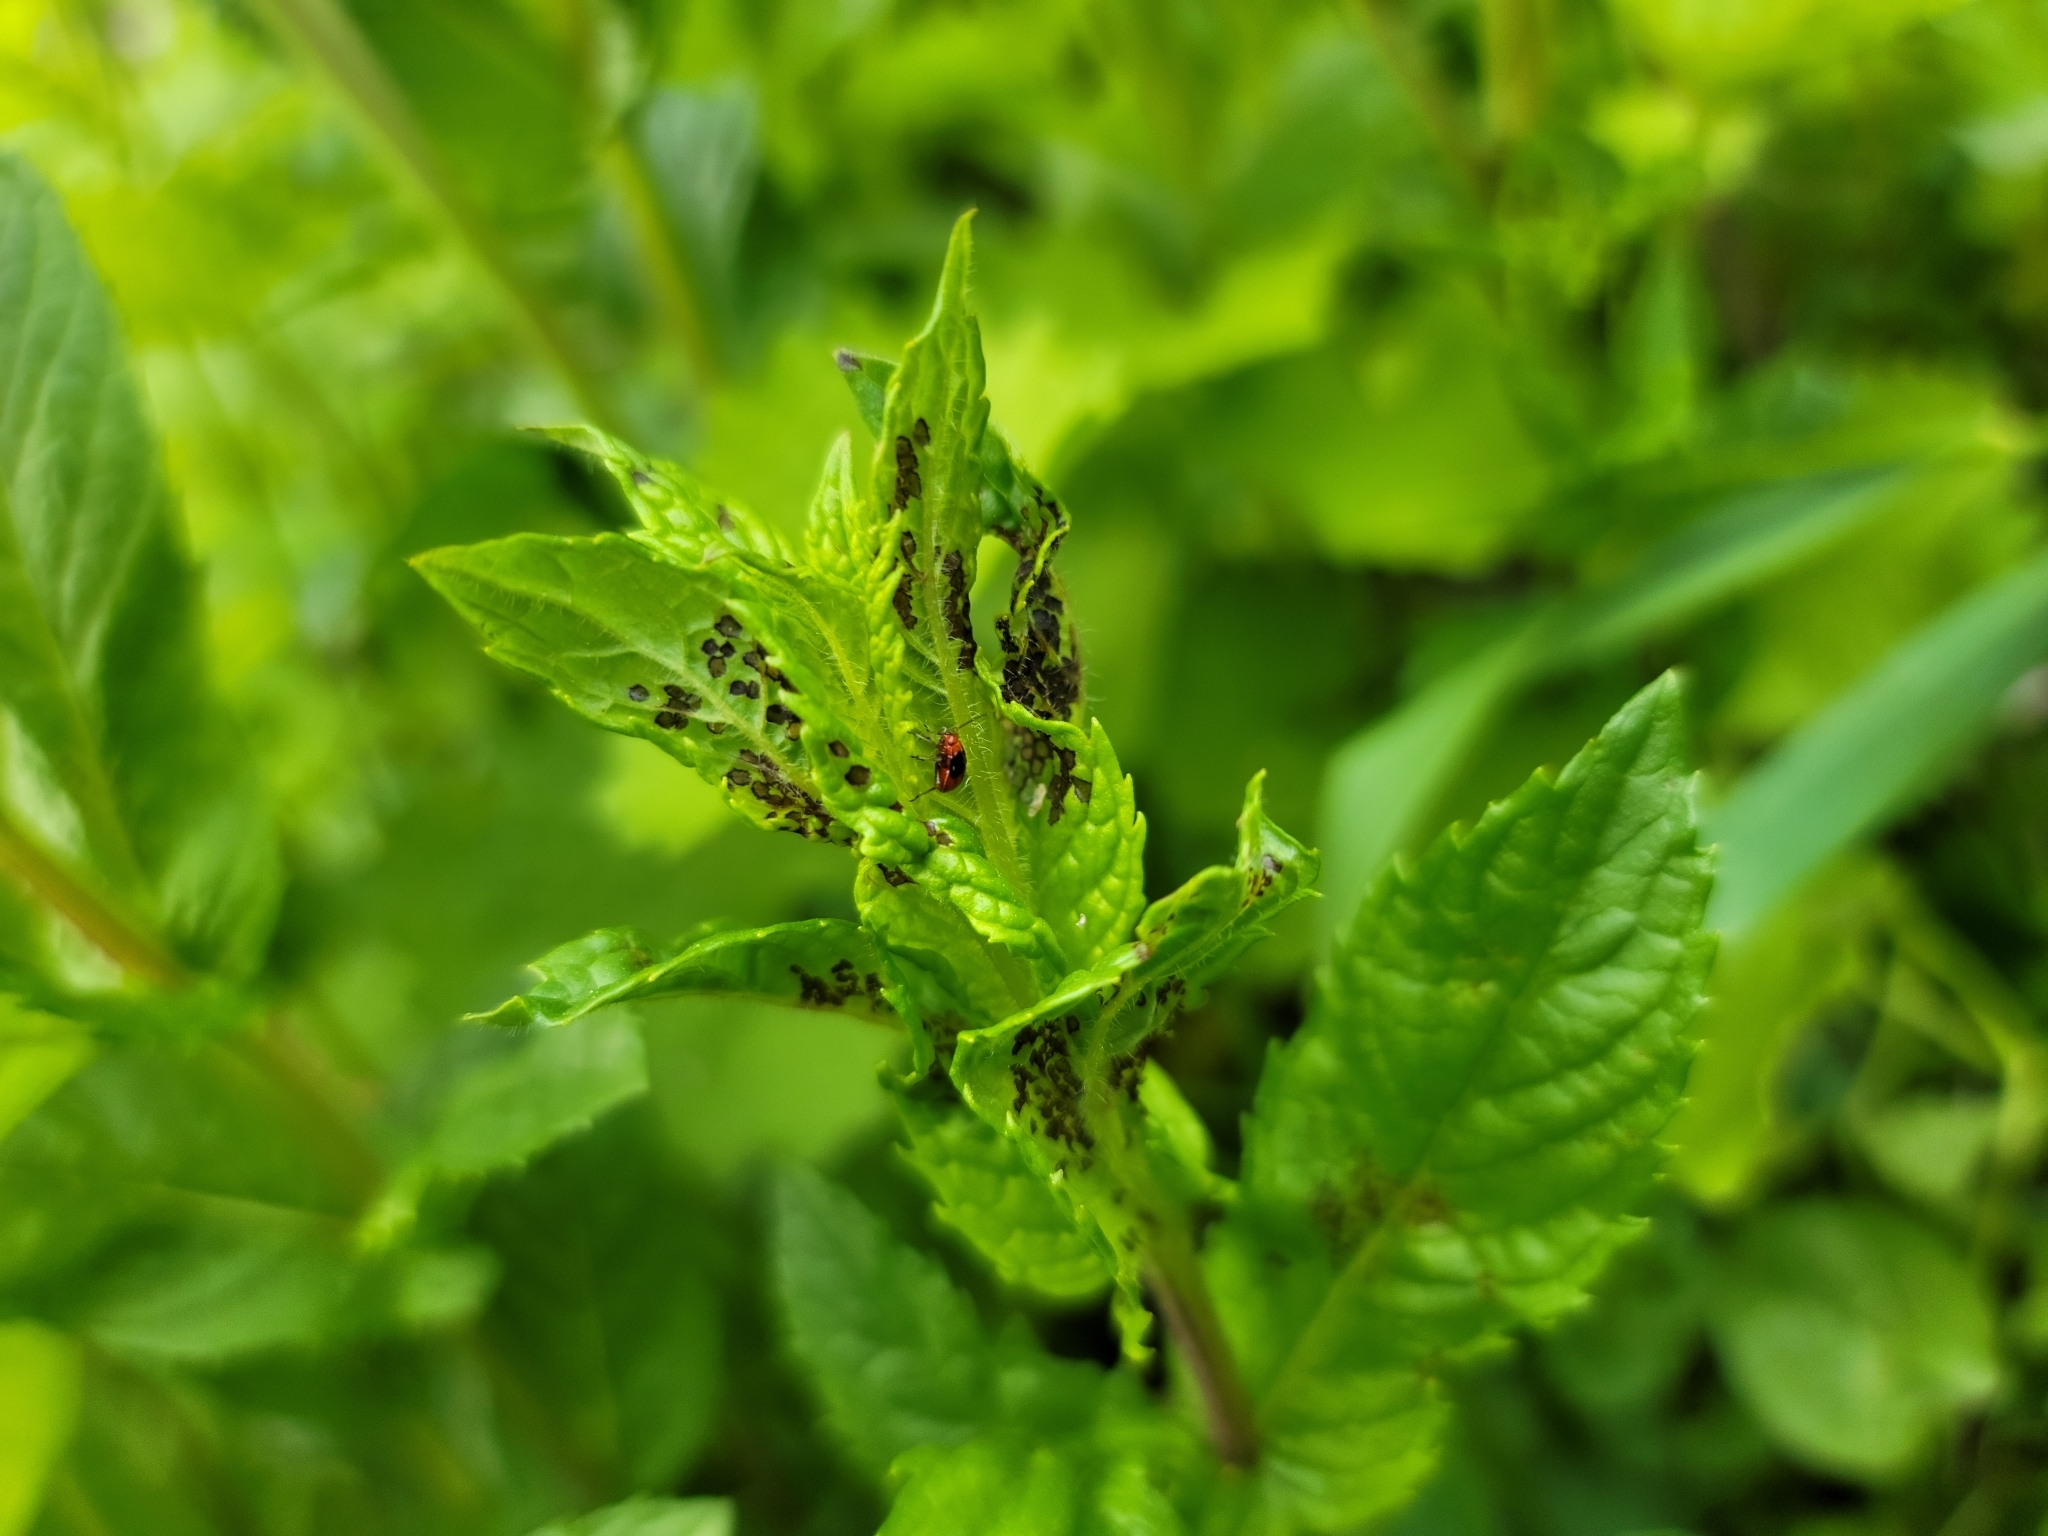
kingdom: Animalia
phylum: Arthropoda
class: Insecta
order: Hemiptera
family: Miridae
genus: Poecilocapsus
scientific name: Poecilocapsus lineatus
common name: Four-lined plant bug
